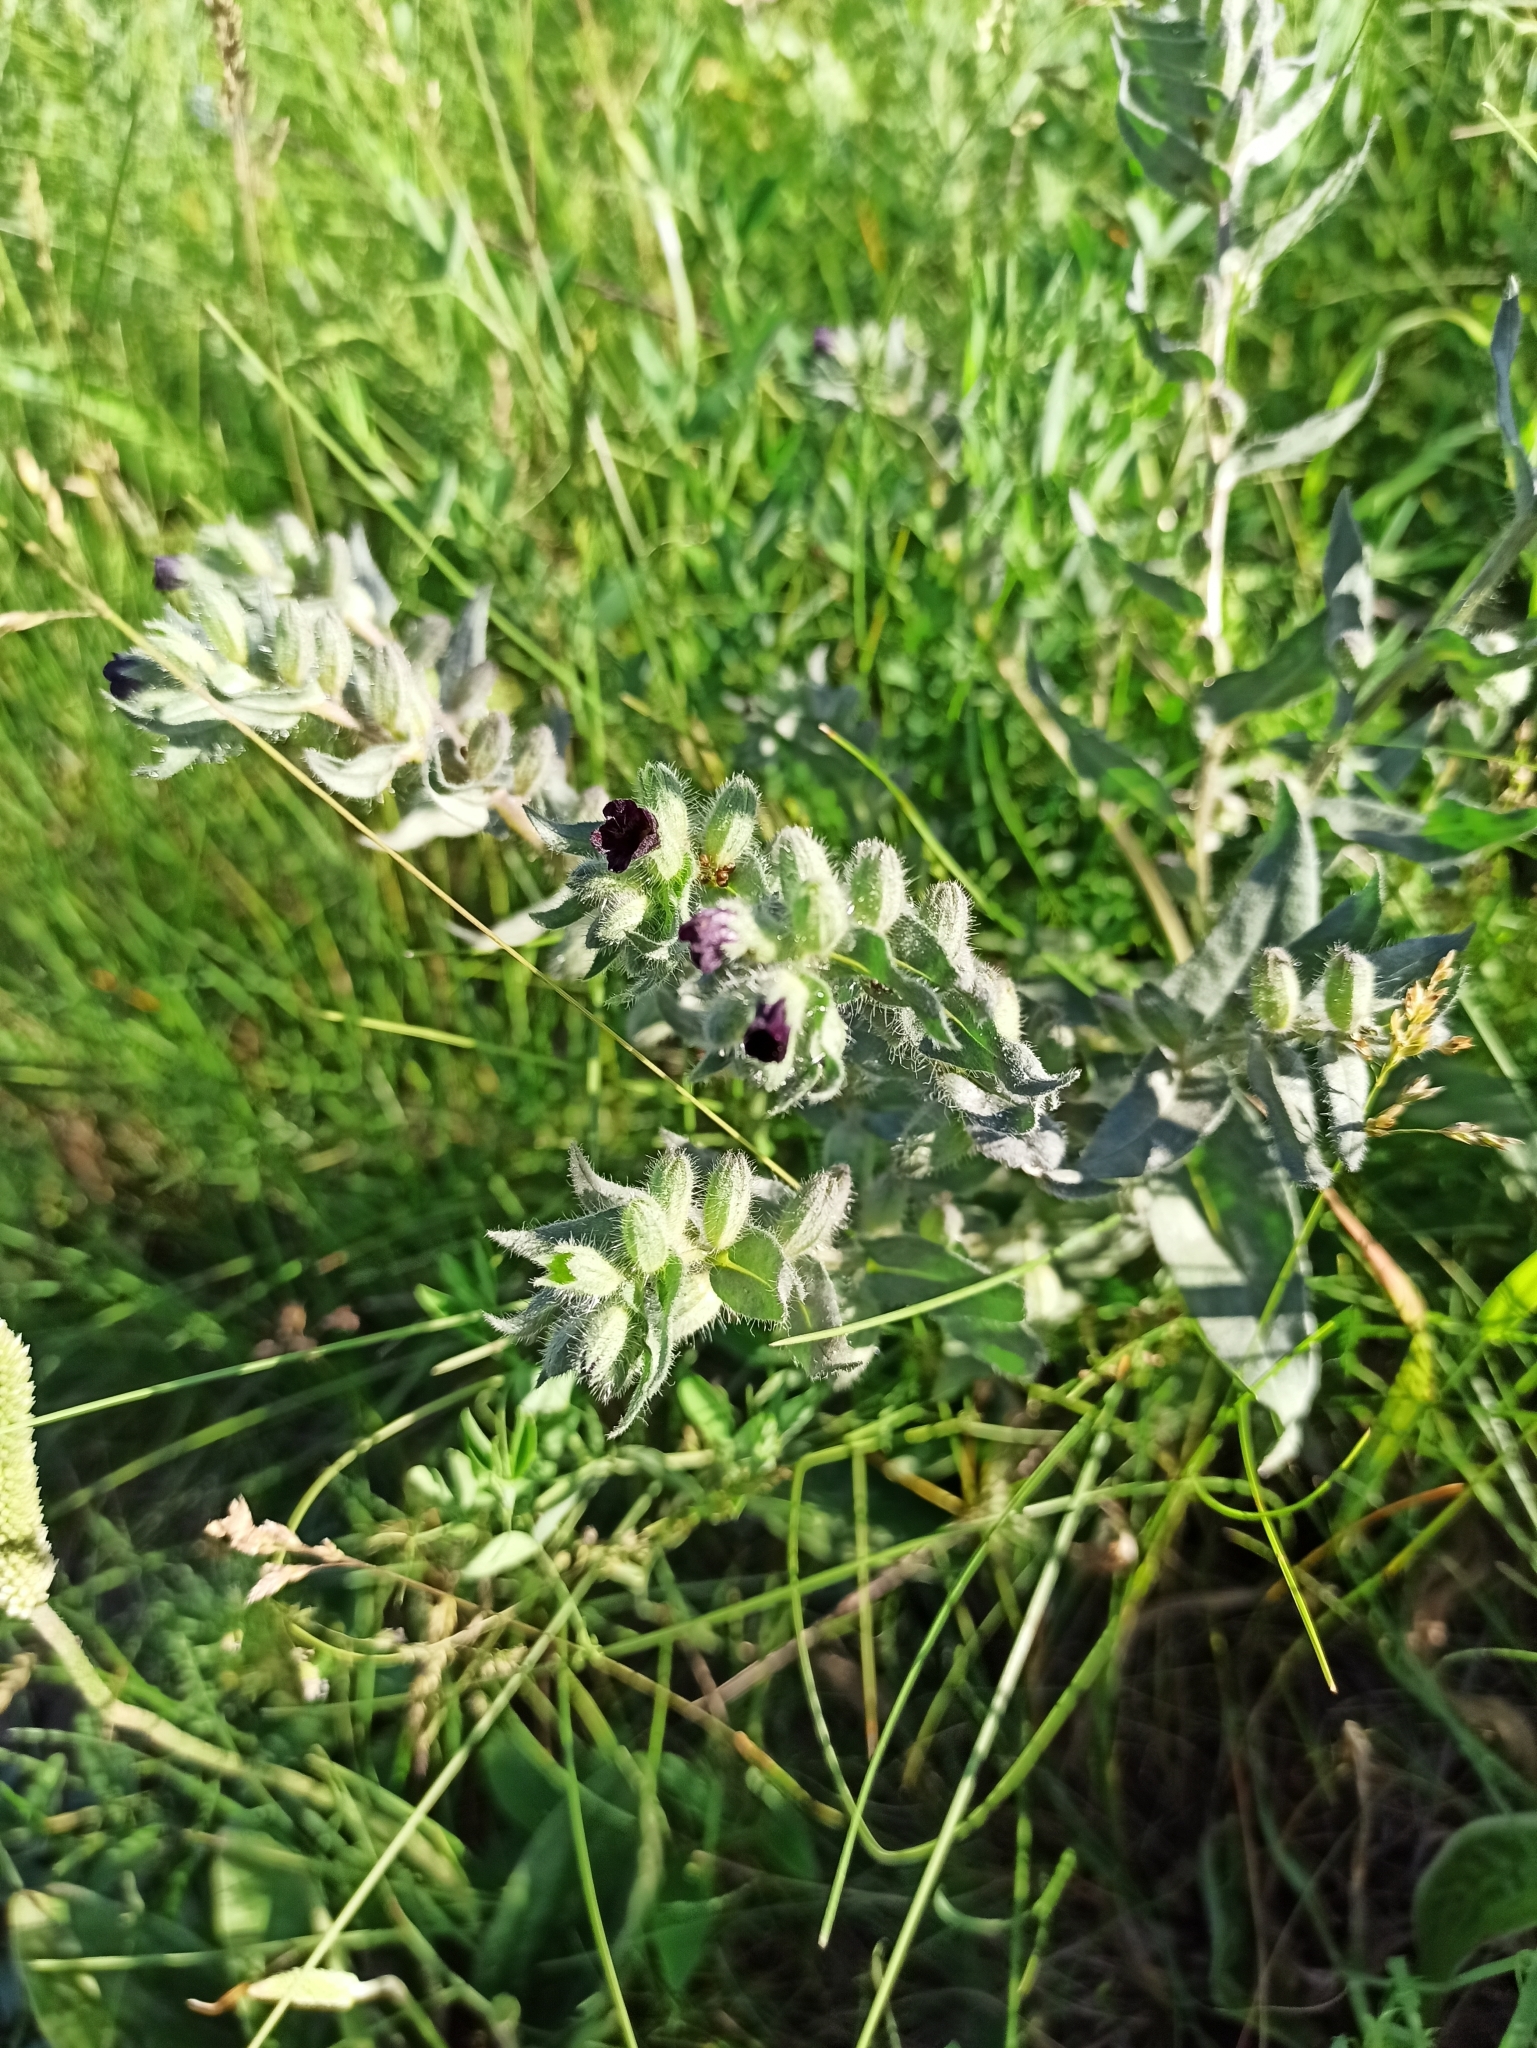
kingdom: Plantae
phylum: Tracheophyta
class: Magnoliopsida
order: Boraginales
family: Boraginaceae
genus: Nonea
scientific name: Nonea pulla
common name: Brown nonea
